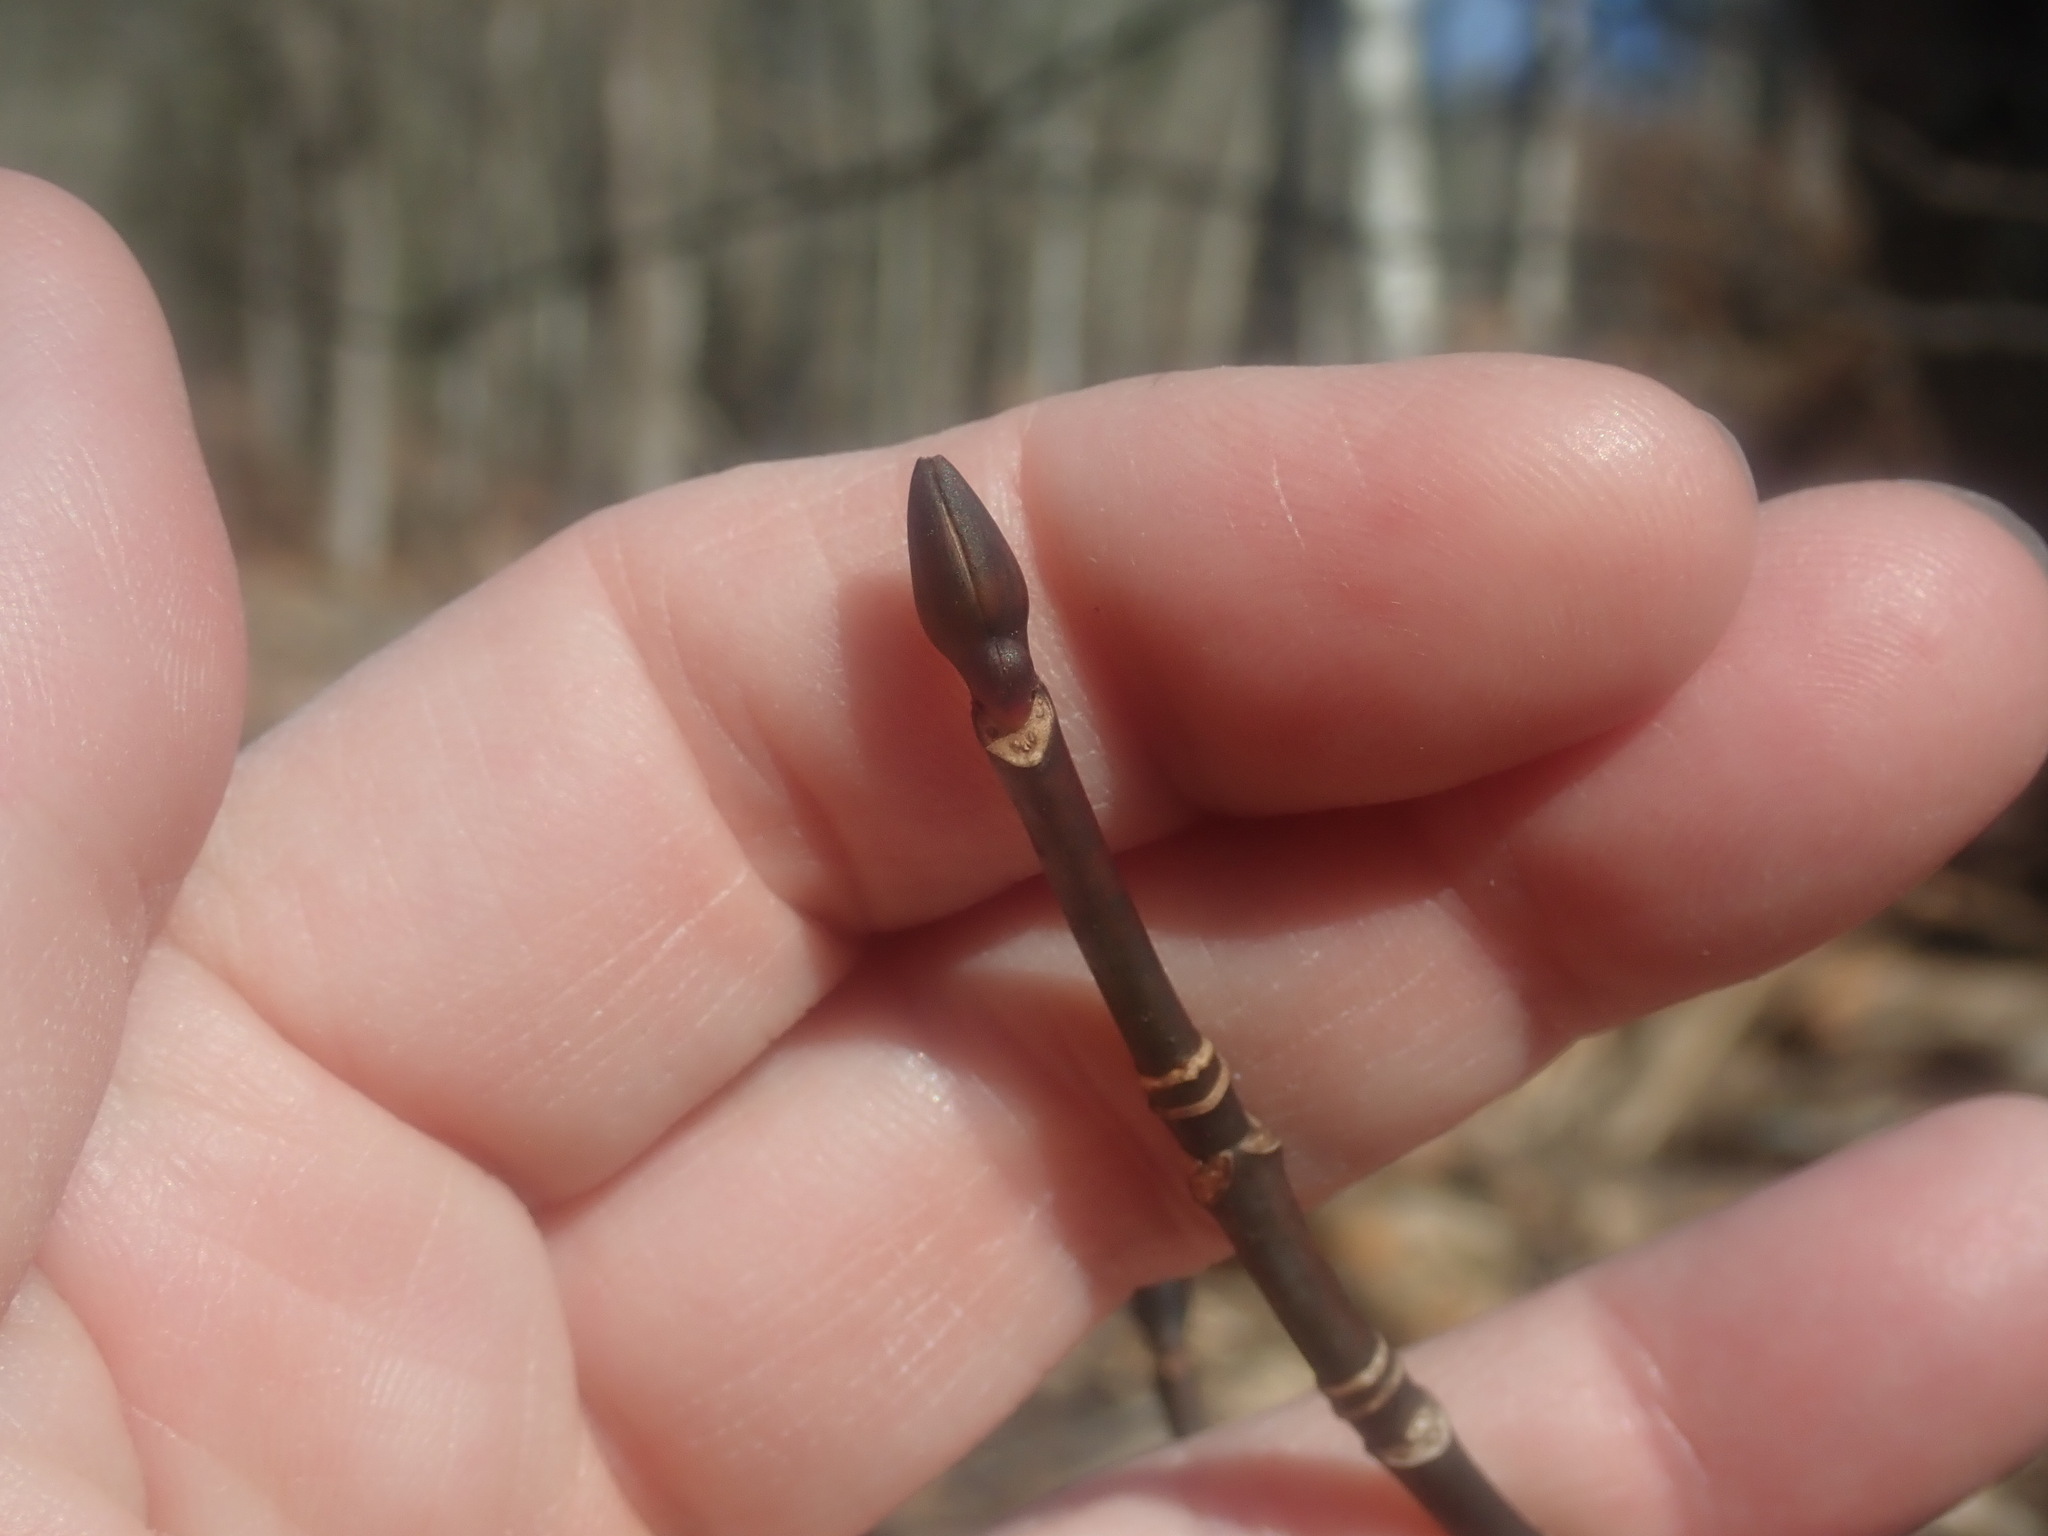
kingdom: Plantae
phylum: Tracheophyta
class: Magnoliopsida
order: Sapindales
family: Sapindaceae
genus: Acer
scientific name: Acer pensylvanicum
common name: Moosewood
